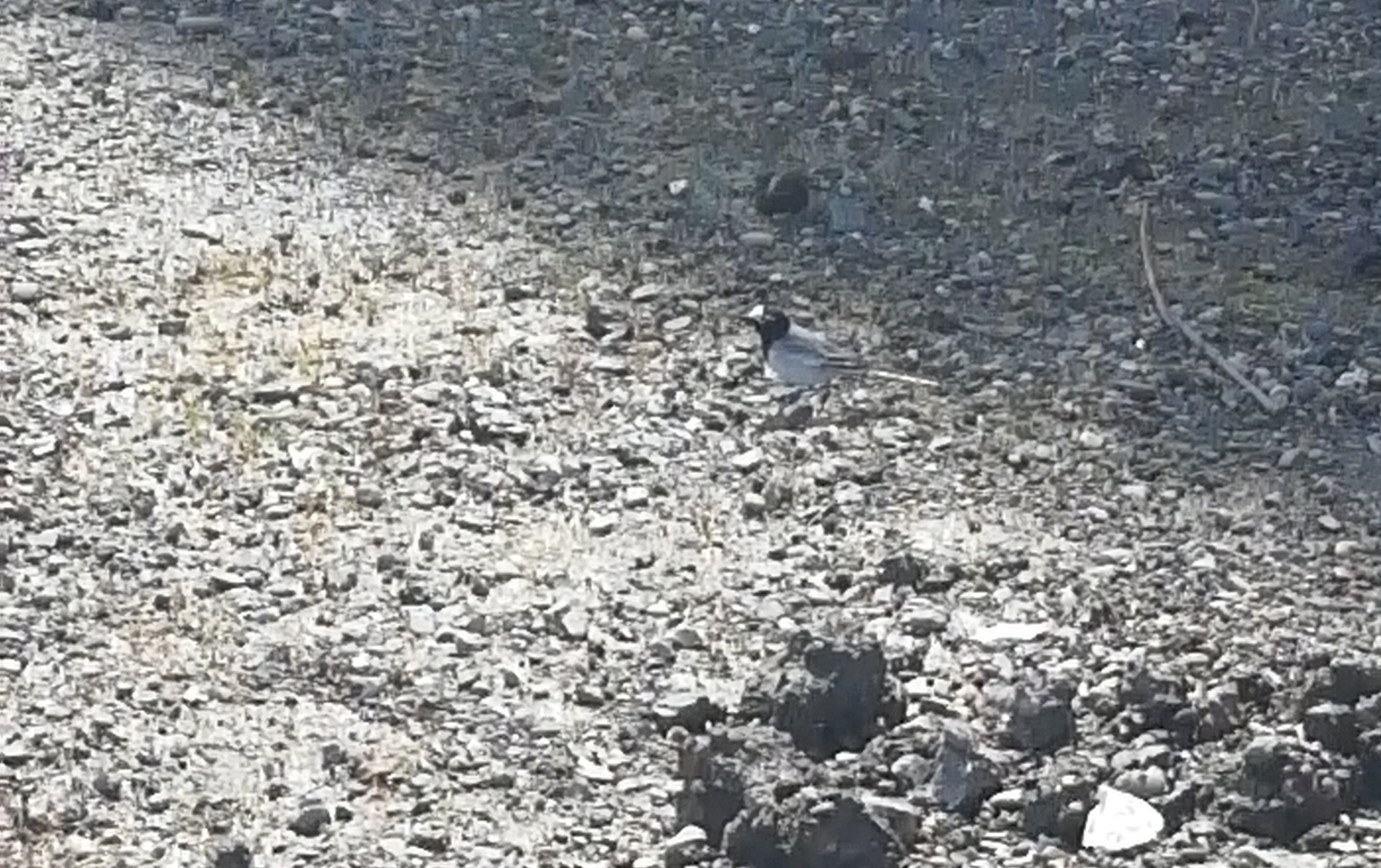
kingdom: Animalia
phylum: Chordata
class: Aves
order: Passeriformes
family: Motacillidae
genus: Motacilla
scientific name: Motacilla alba
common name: White wagtail
